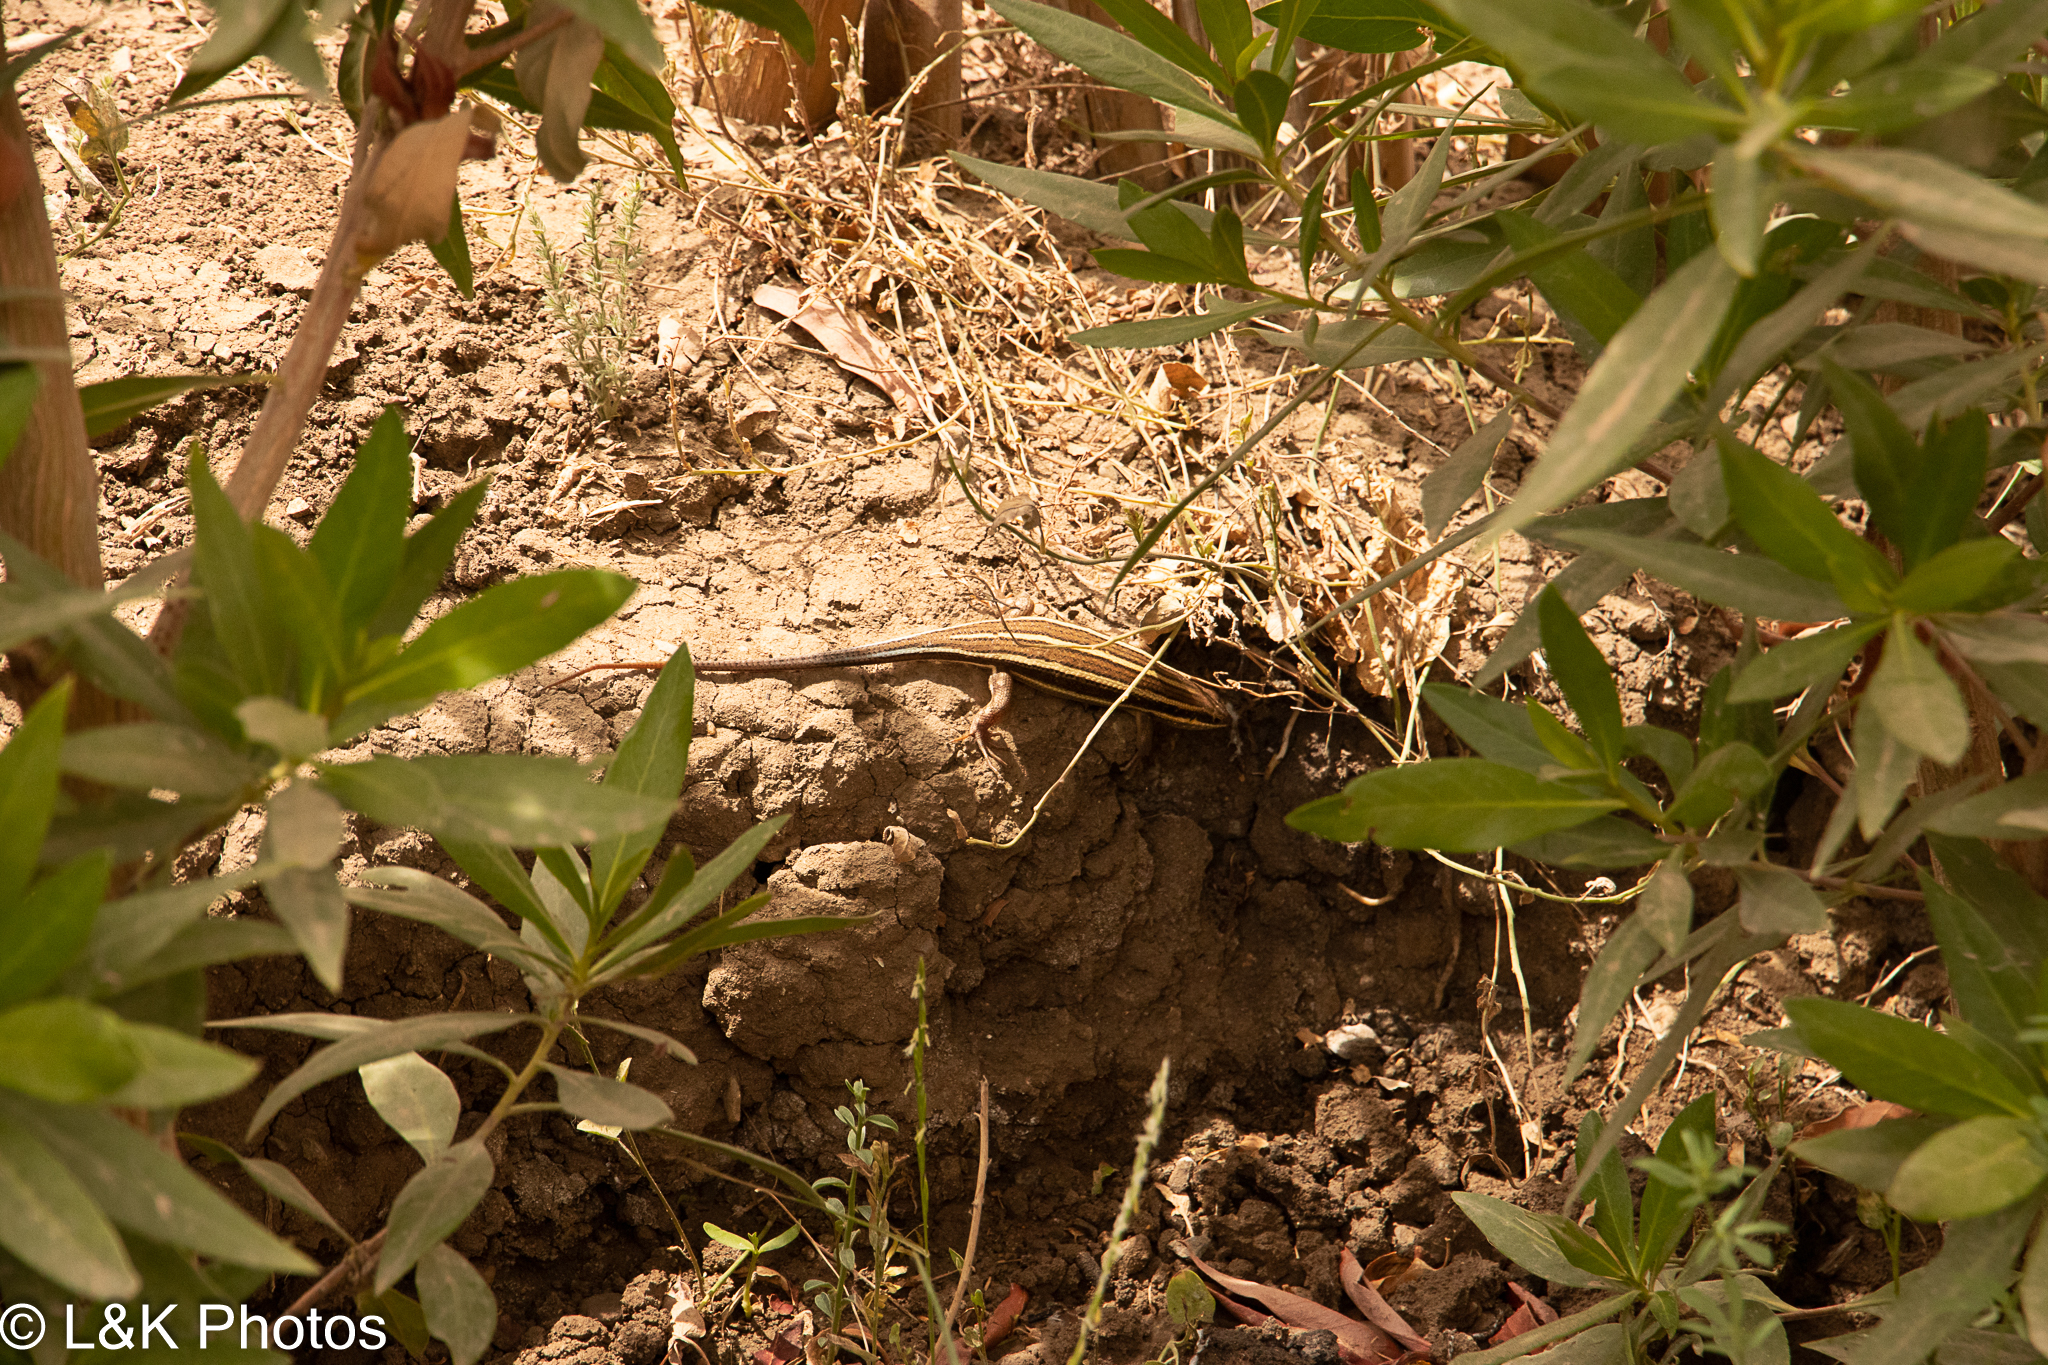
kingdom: Animalia
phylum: Chordata
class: Squamata
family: Scincidae
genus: Trachylepis
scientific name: Trachylepis quinquetaeniata
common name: African five-lined skink
